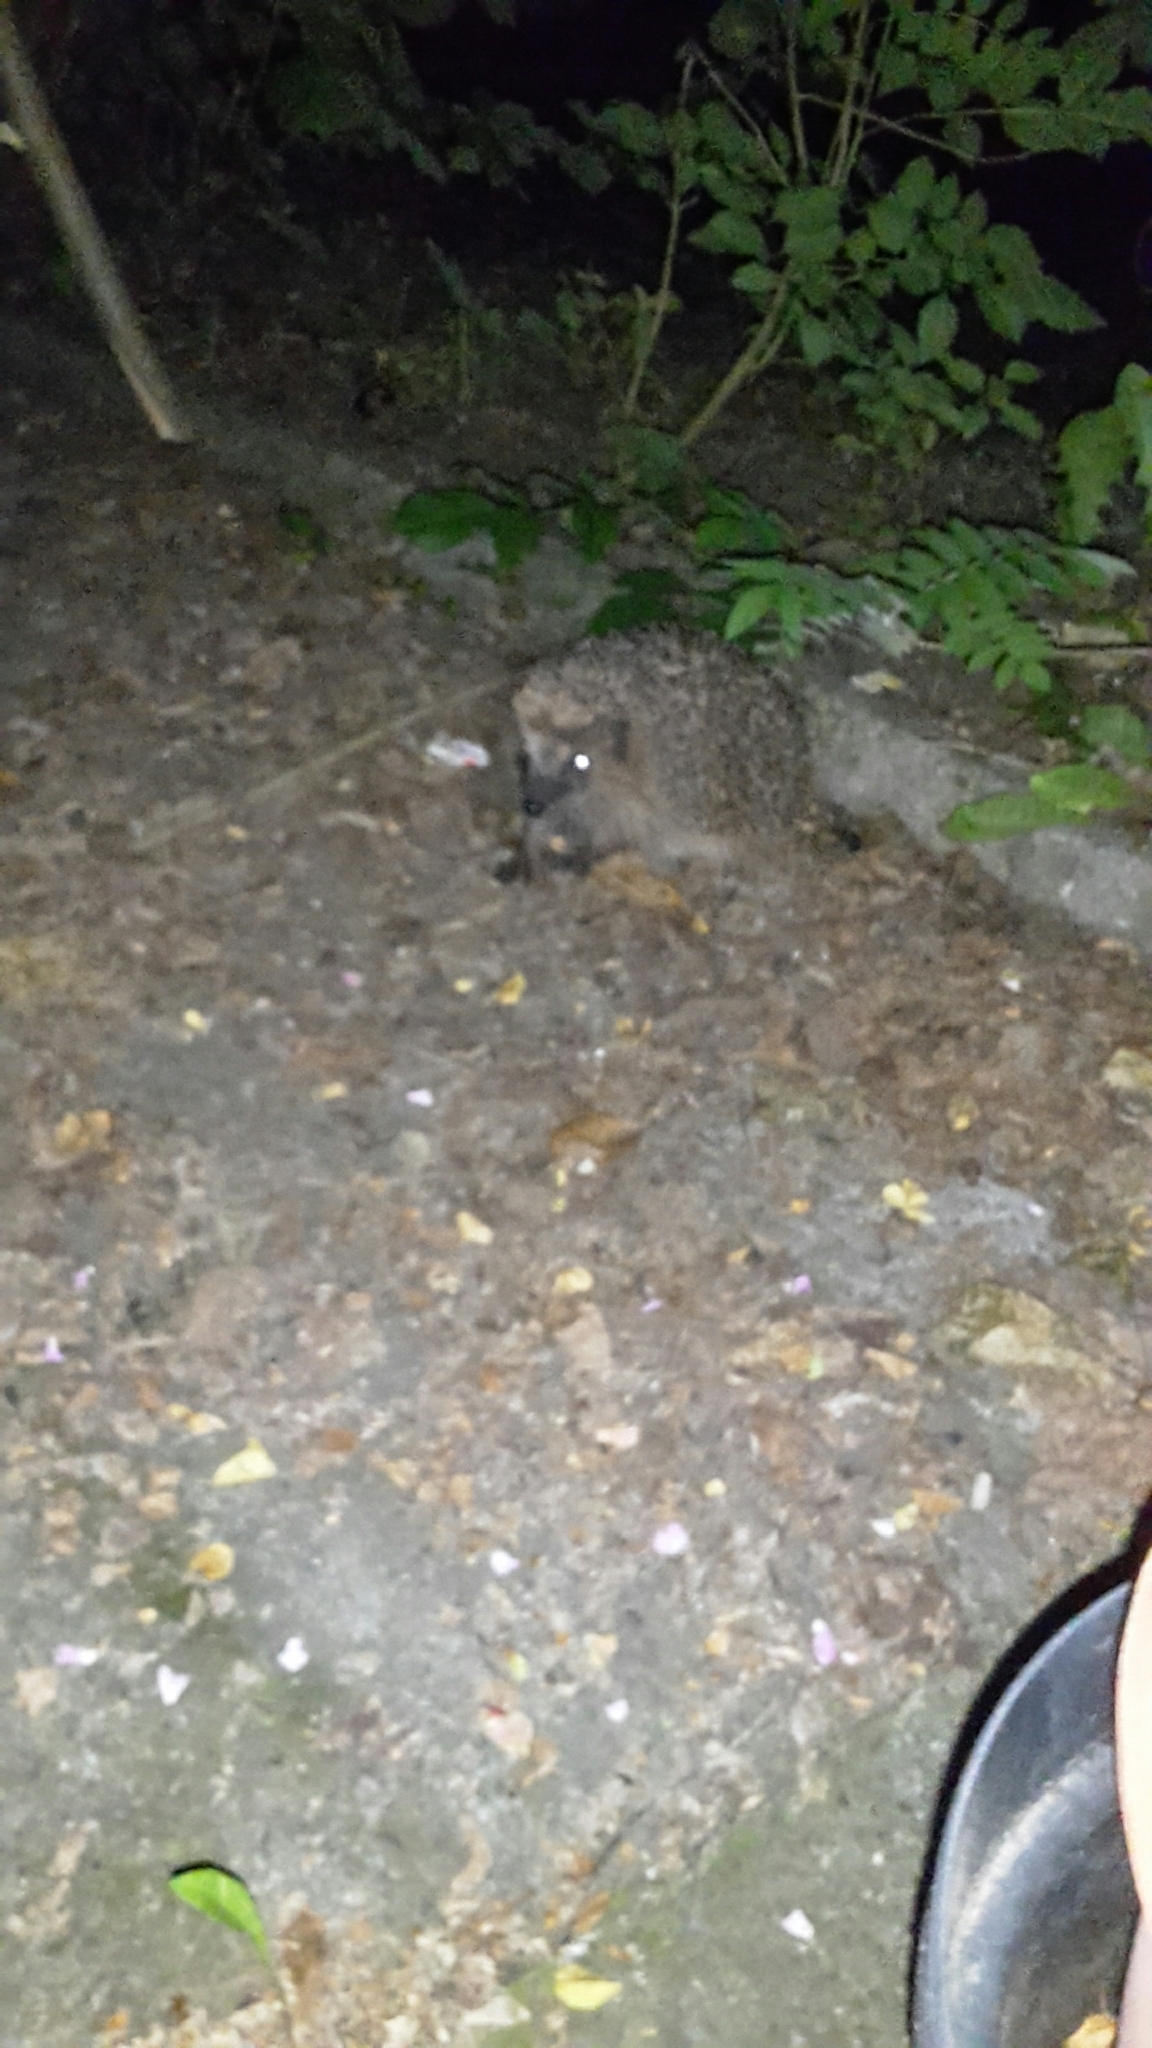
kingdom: Animalia
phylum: Chordata
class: Mammalia
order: Erinaceomorpha
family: Erinaceidae
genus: Erinaceus
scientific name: Erinaceus europaeus
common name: West european hedgehog
